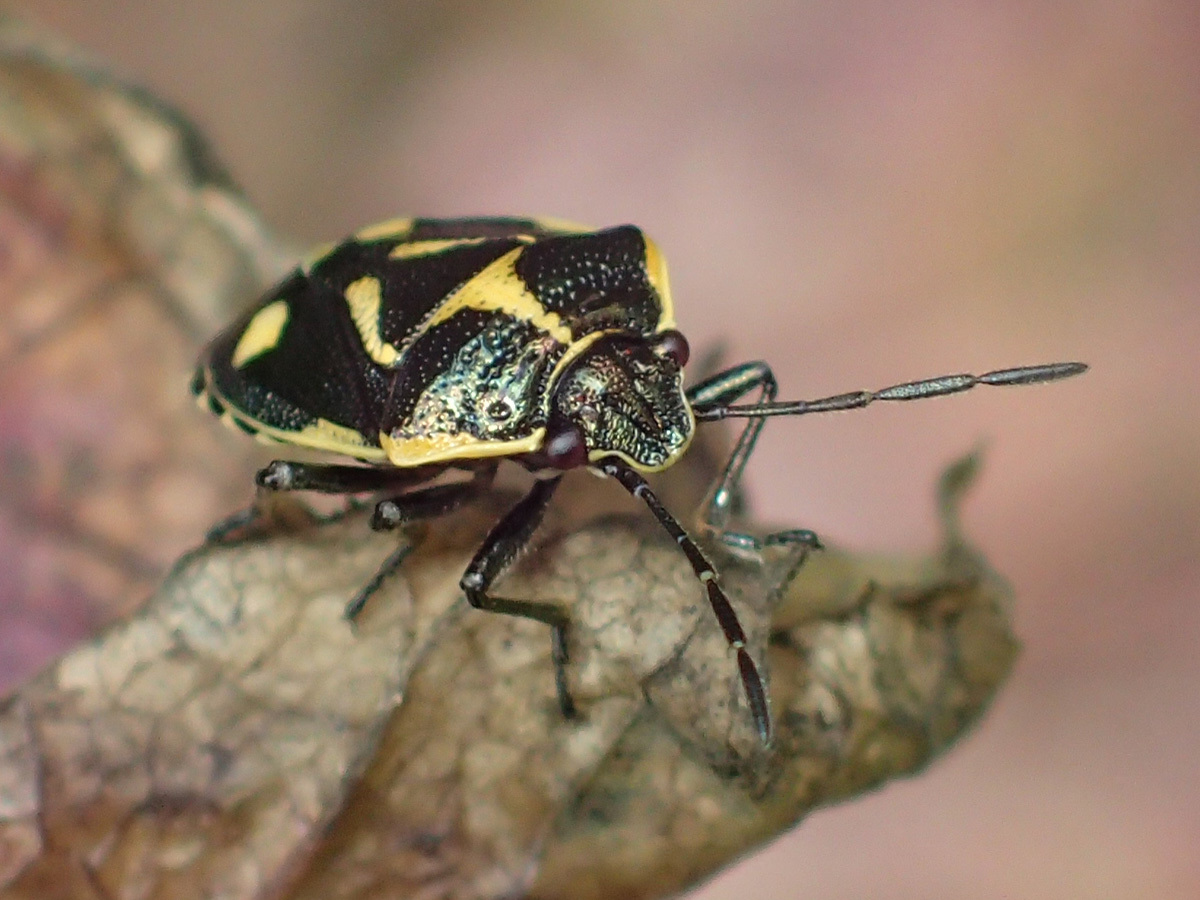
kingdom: Animalia
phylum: Arthropoda
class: Insecta
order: Hemiptera
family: Pentatomidae
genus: Eurydema
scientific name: Eurydema oleracea
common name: Cabbage bug
